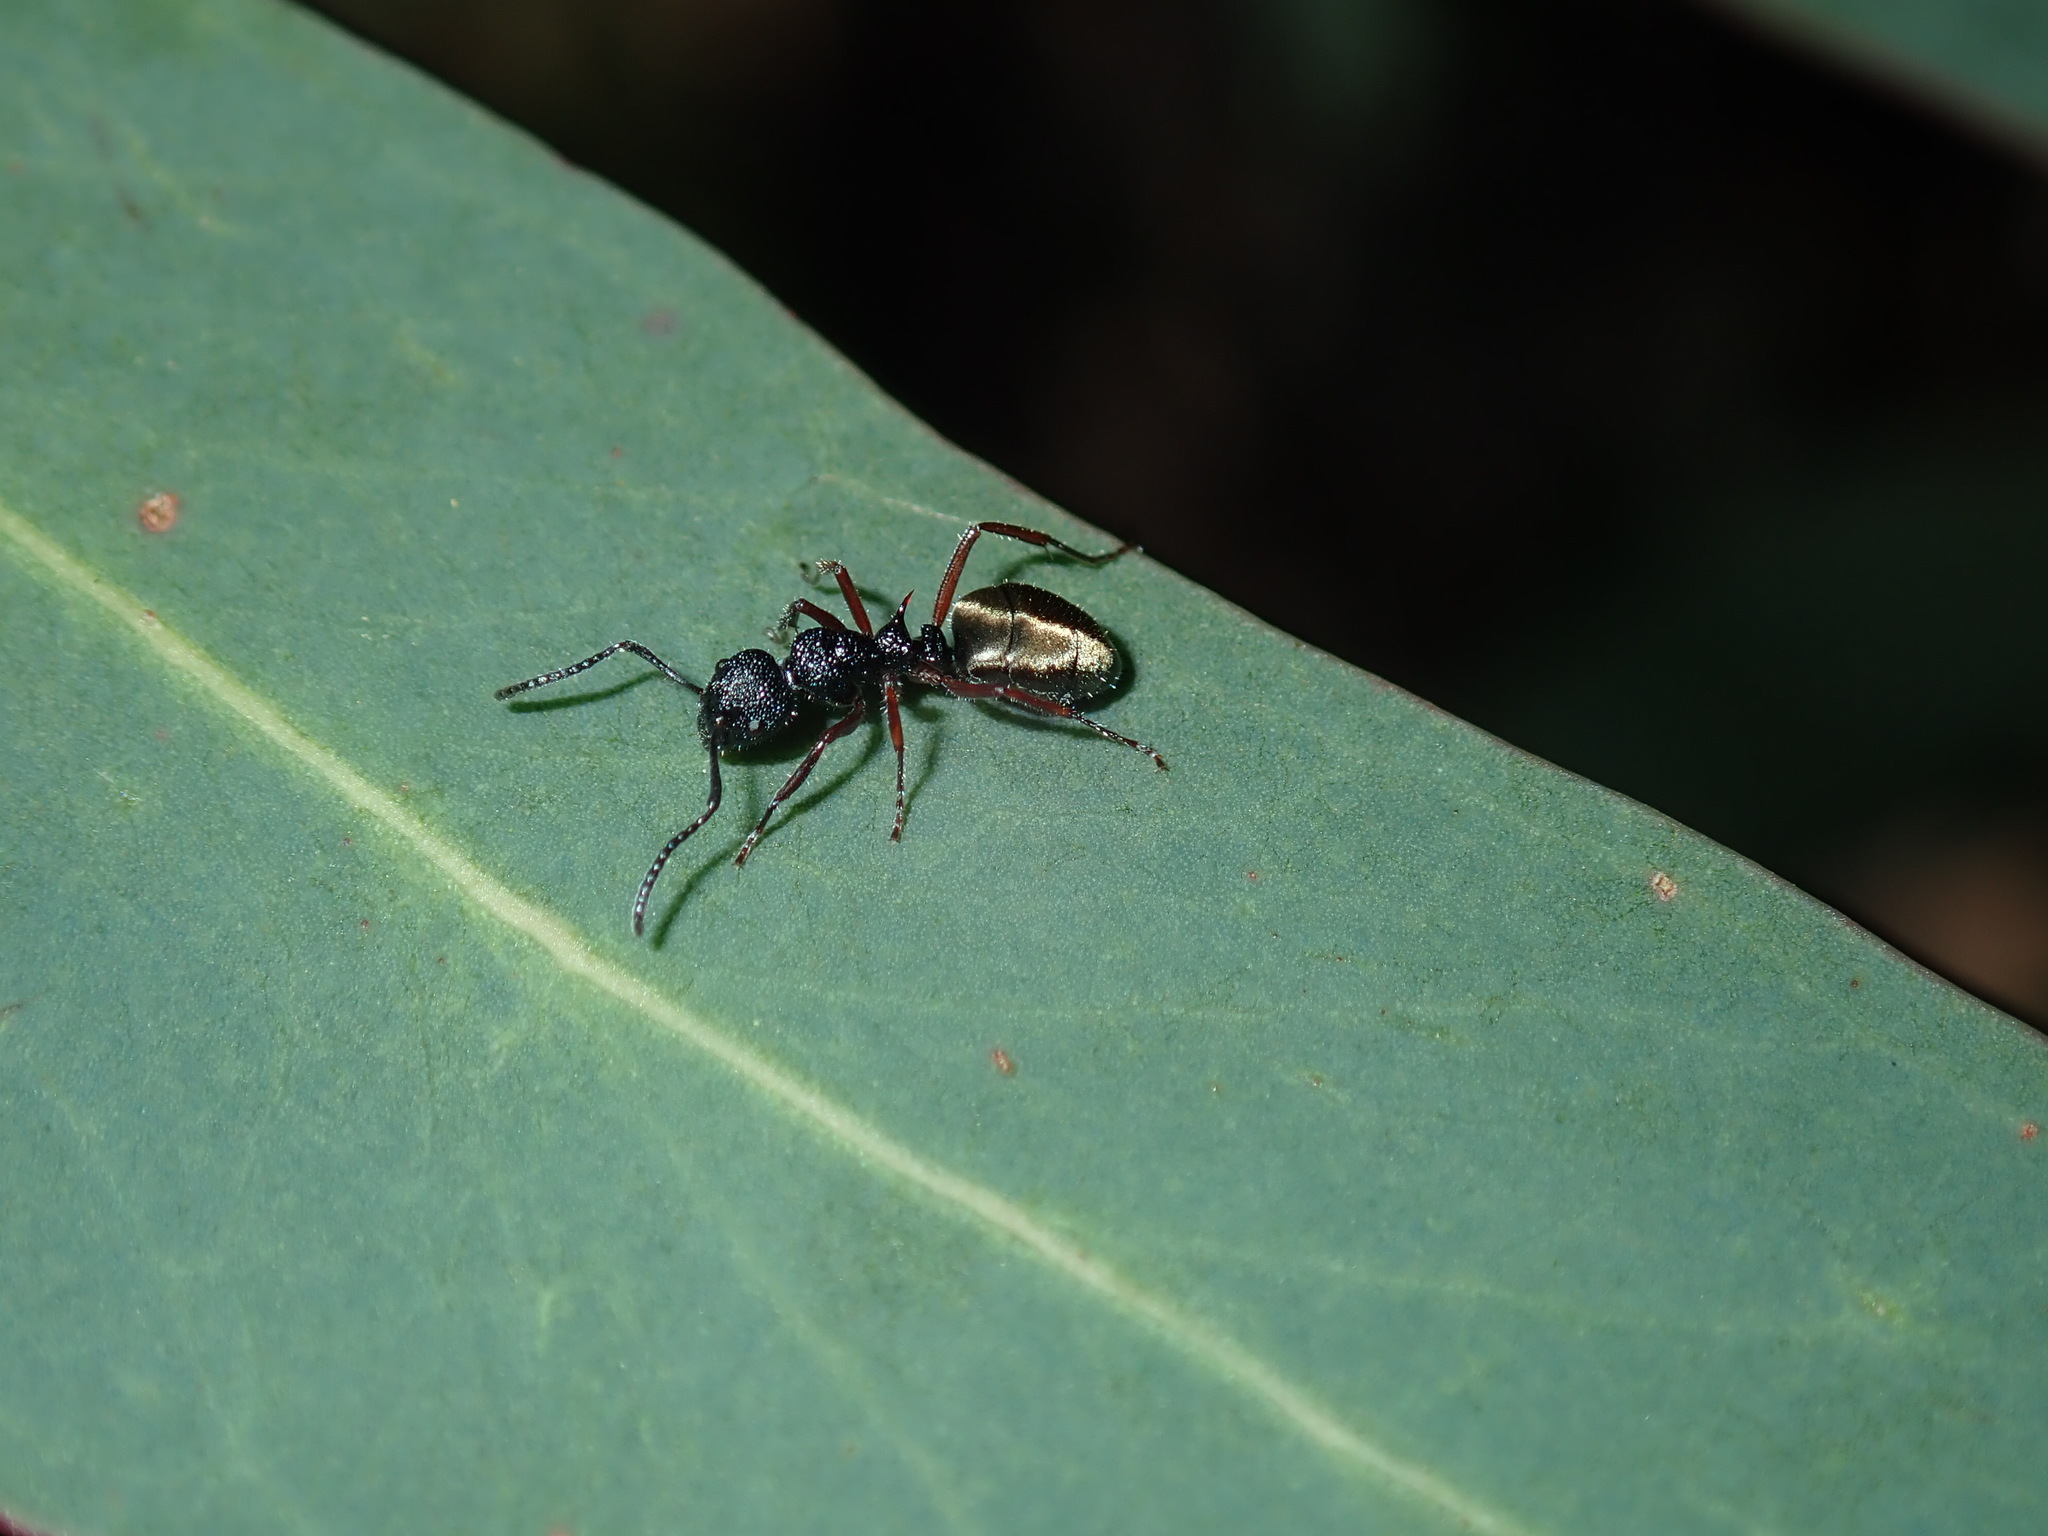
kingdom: Animalia
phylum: Arthropoda
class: Insecta
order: Hymenoptera
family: Formicidae
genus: Dolichoderus
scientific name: Dolichoderus scabridus
